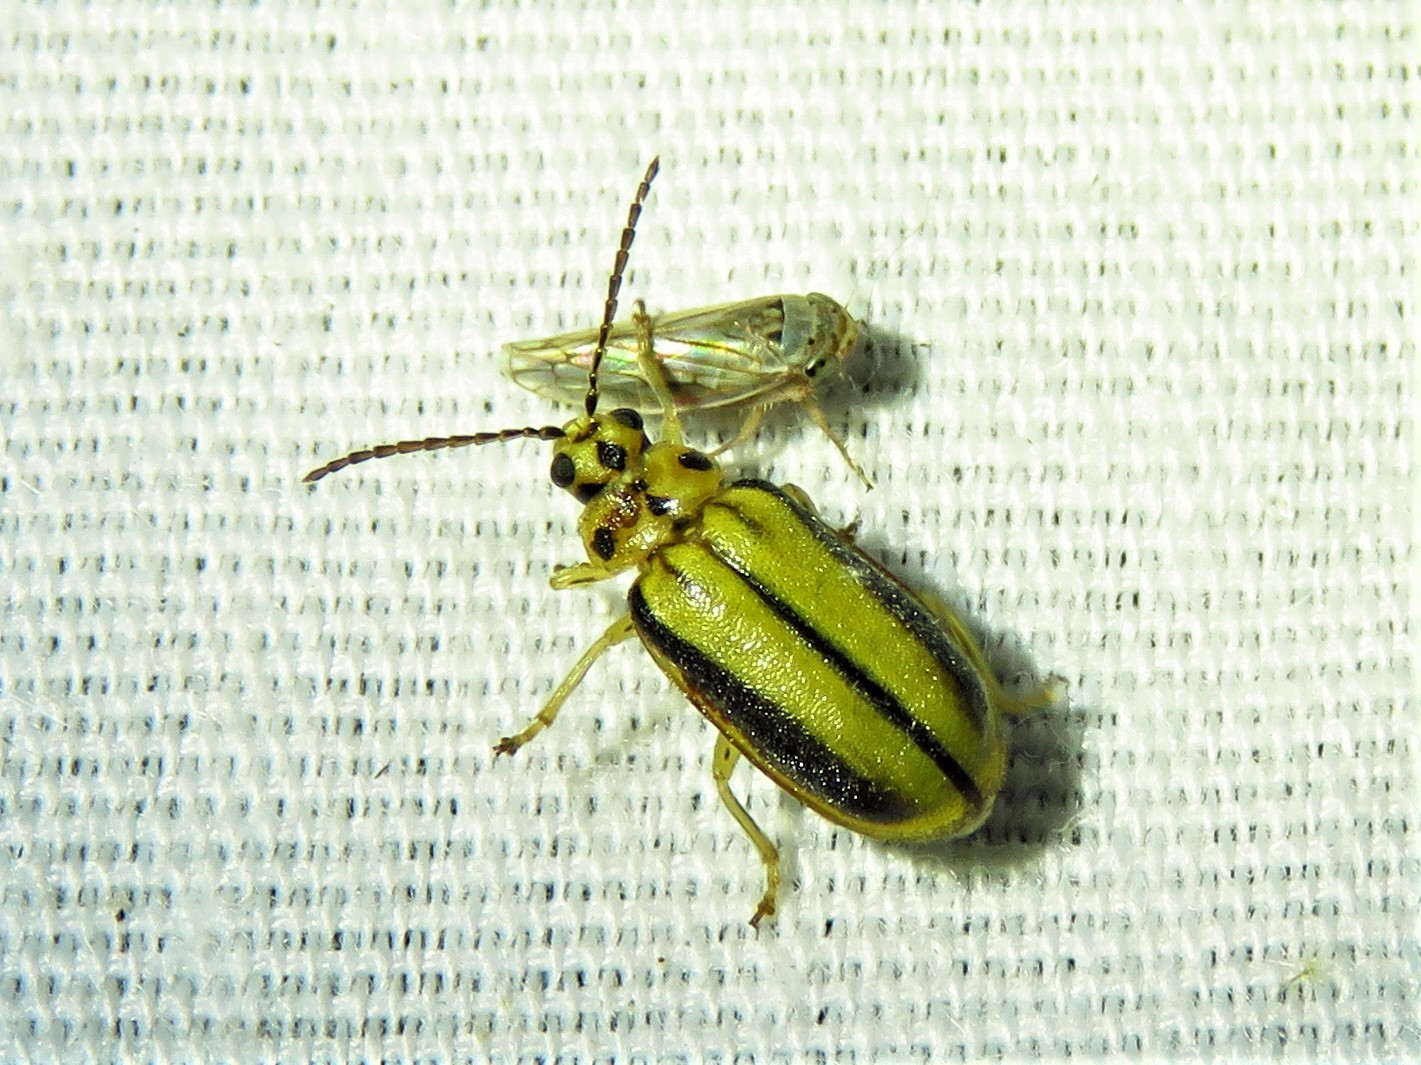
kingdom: Animalia
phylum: Arthropoda
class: Insecta
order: Coleoptera
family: Chrysomelidae
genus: Xanthogaleruca
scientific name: Xanthogaleruca luteola
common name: Elm leaf beetle
